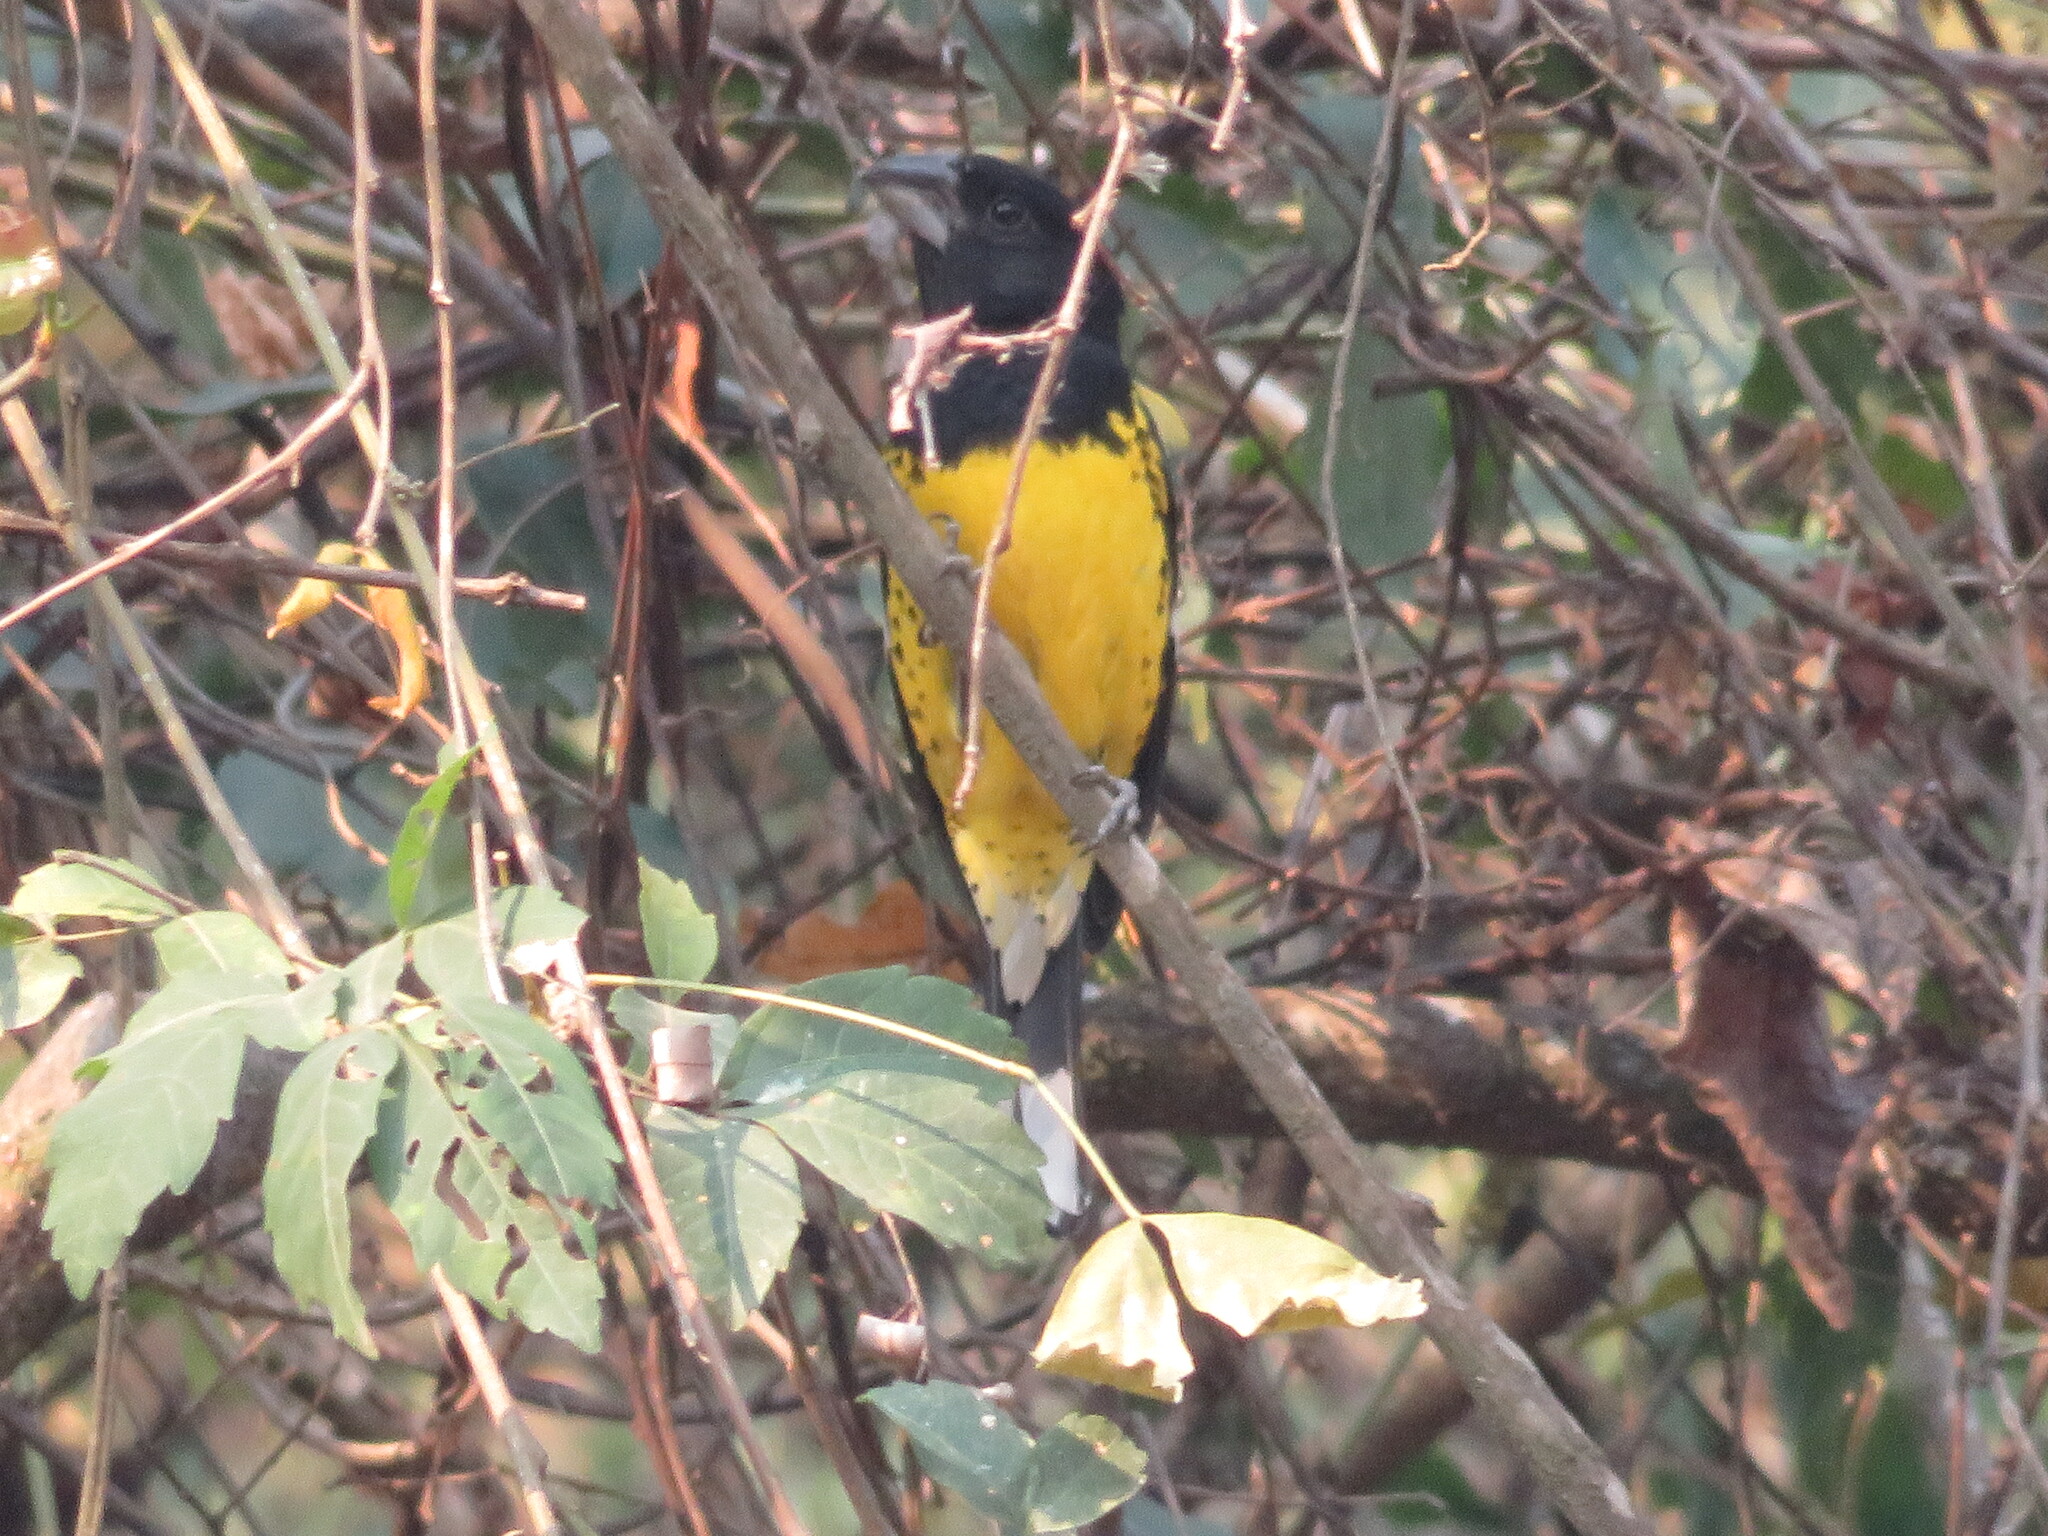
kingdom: Animalia
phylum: Chordata
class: Aves
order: Passeriformes
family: Cardinalidae
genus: Pheucticus
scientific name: Pheucticus aureoventris
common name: Black-backed grosbeak
